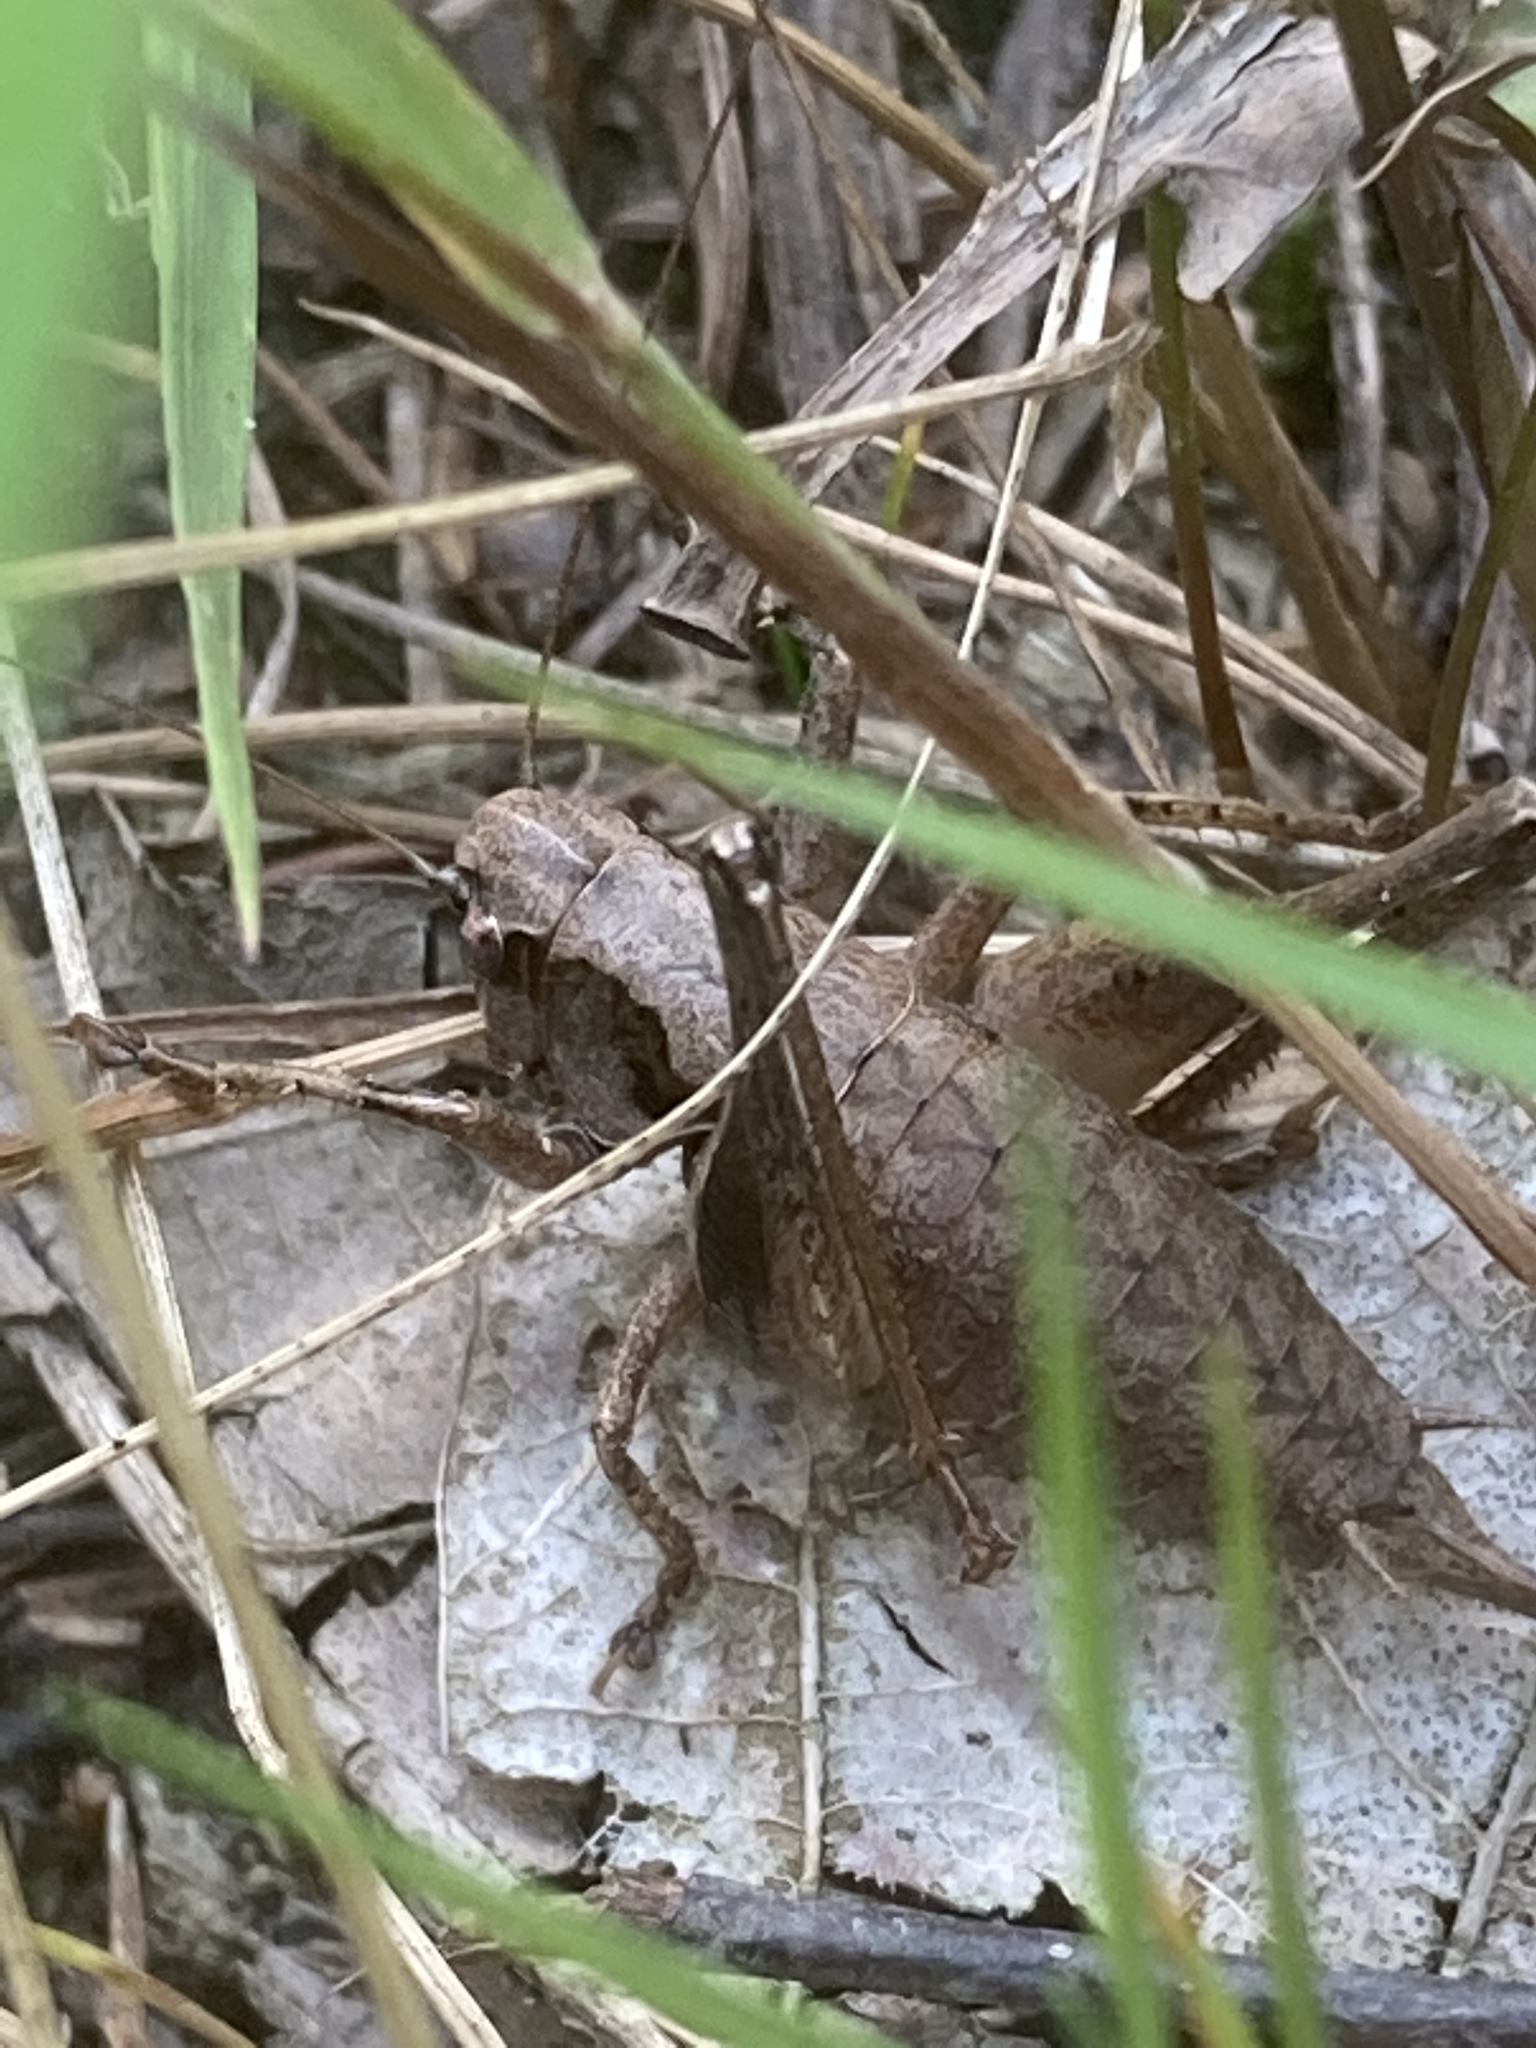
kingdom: Animalia
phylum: Arthropoda
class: Insecta
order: Orthoptera
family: Tettigoniidae
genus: Pholidoptera
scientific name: Pholidoptera griseoaptera
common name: Dark bush-cricket
